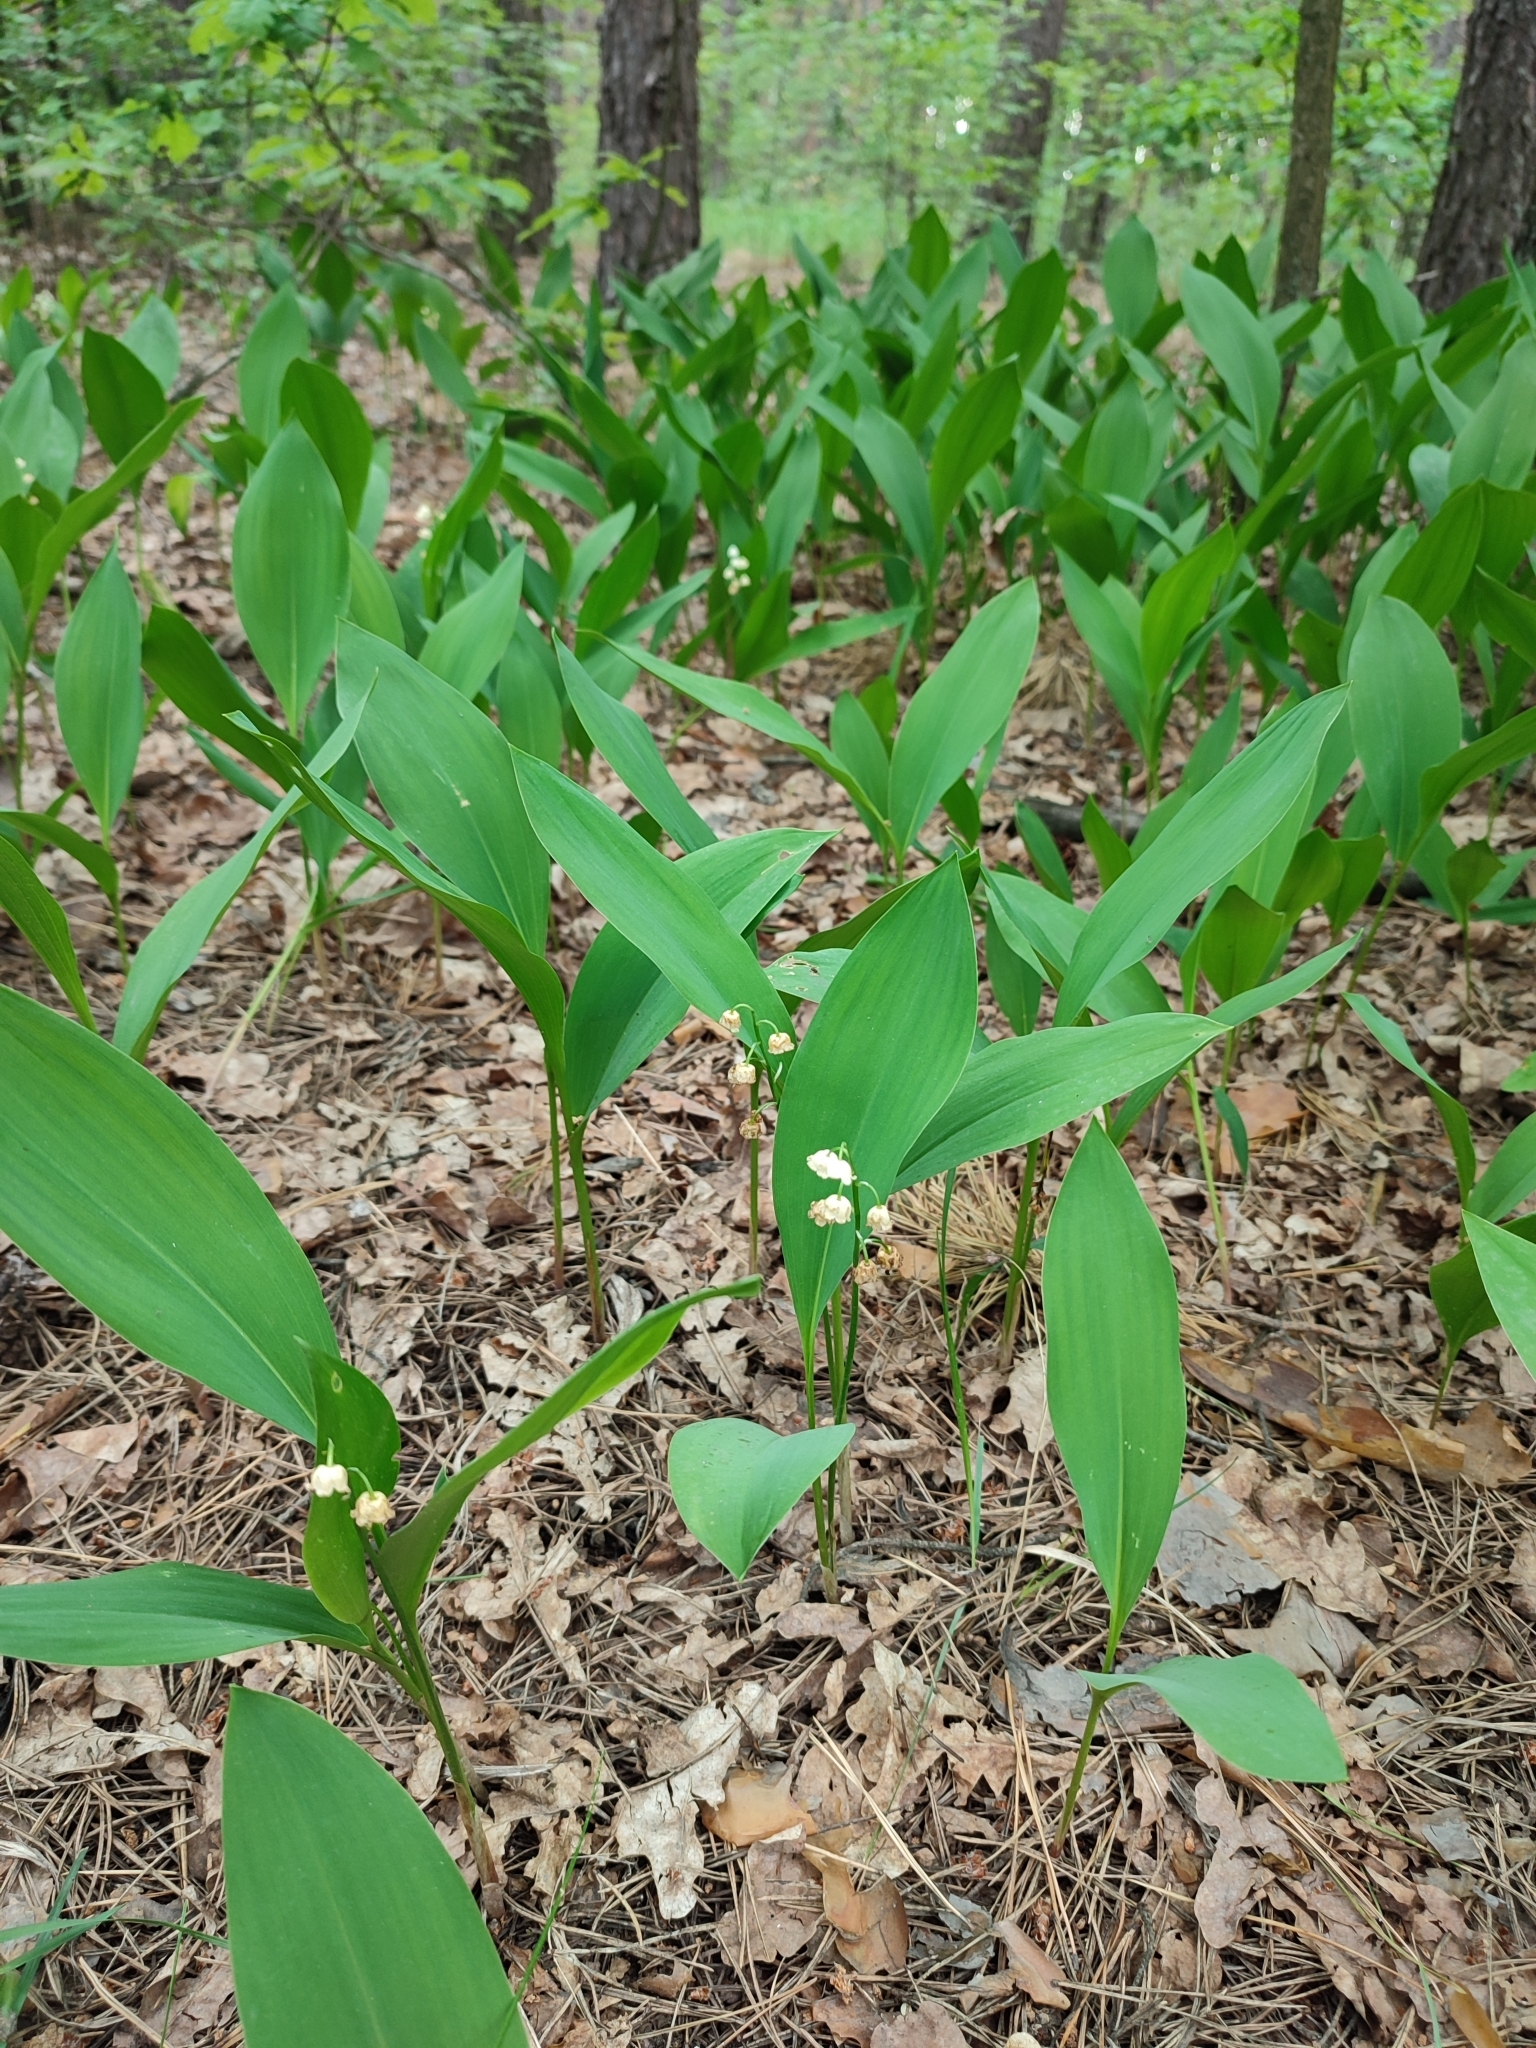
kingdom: Plantae
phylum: Tracheophyta
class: Liliopsida
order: Asparagales
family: Asparagaceae
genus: Convallaria
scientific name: Convallaria majalis
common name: Lily-of-the-valley
